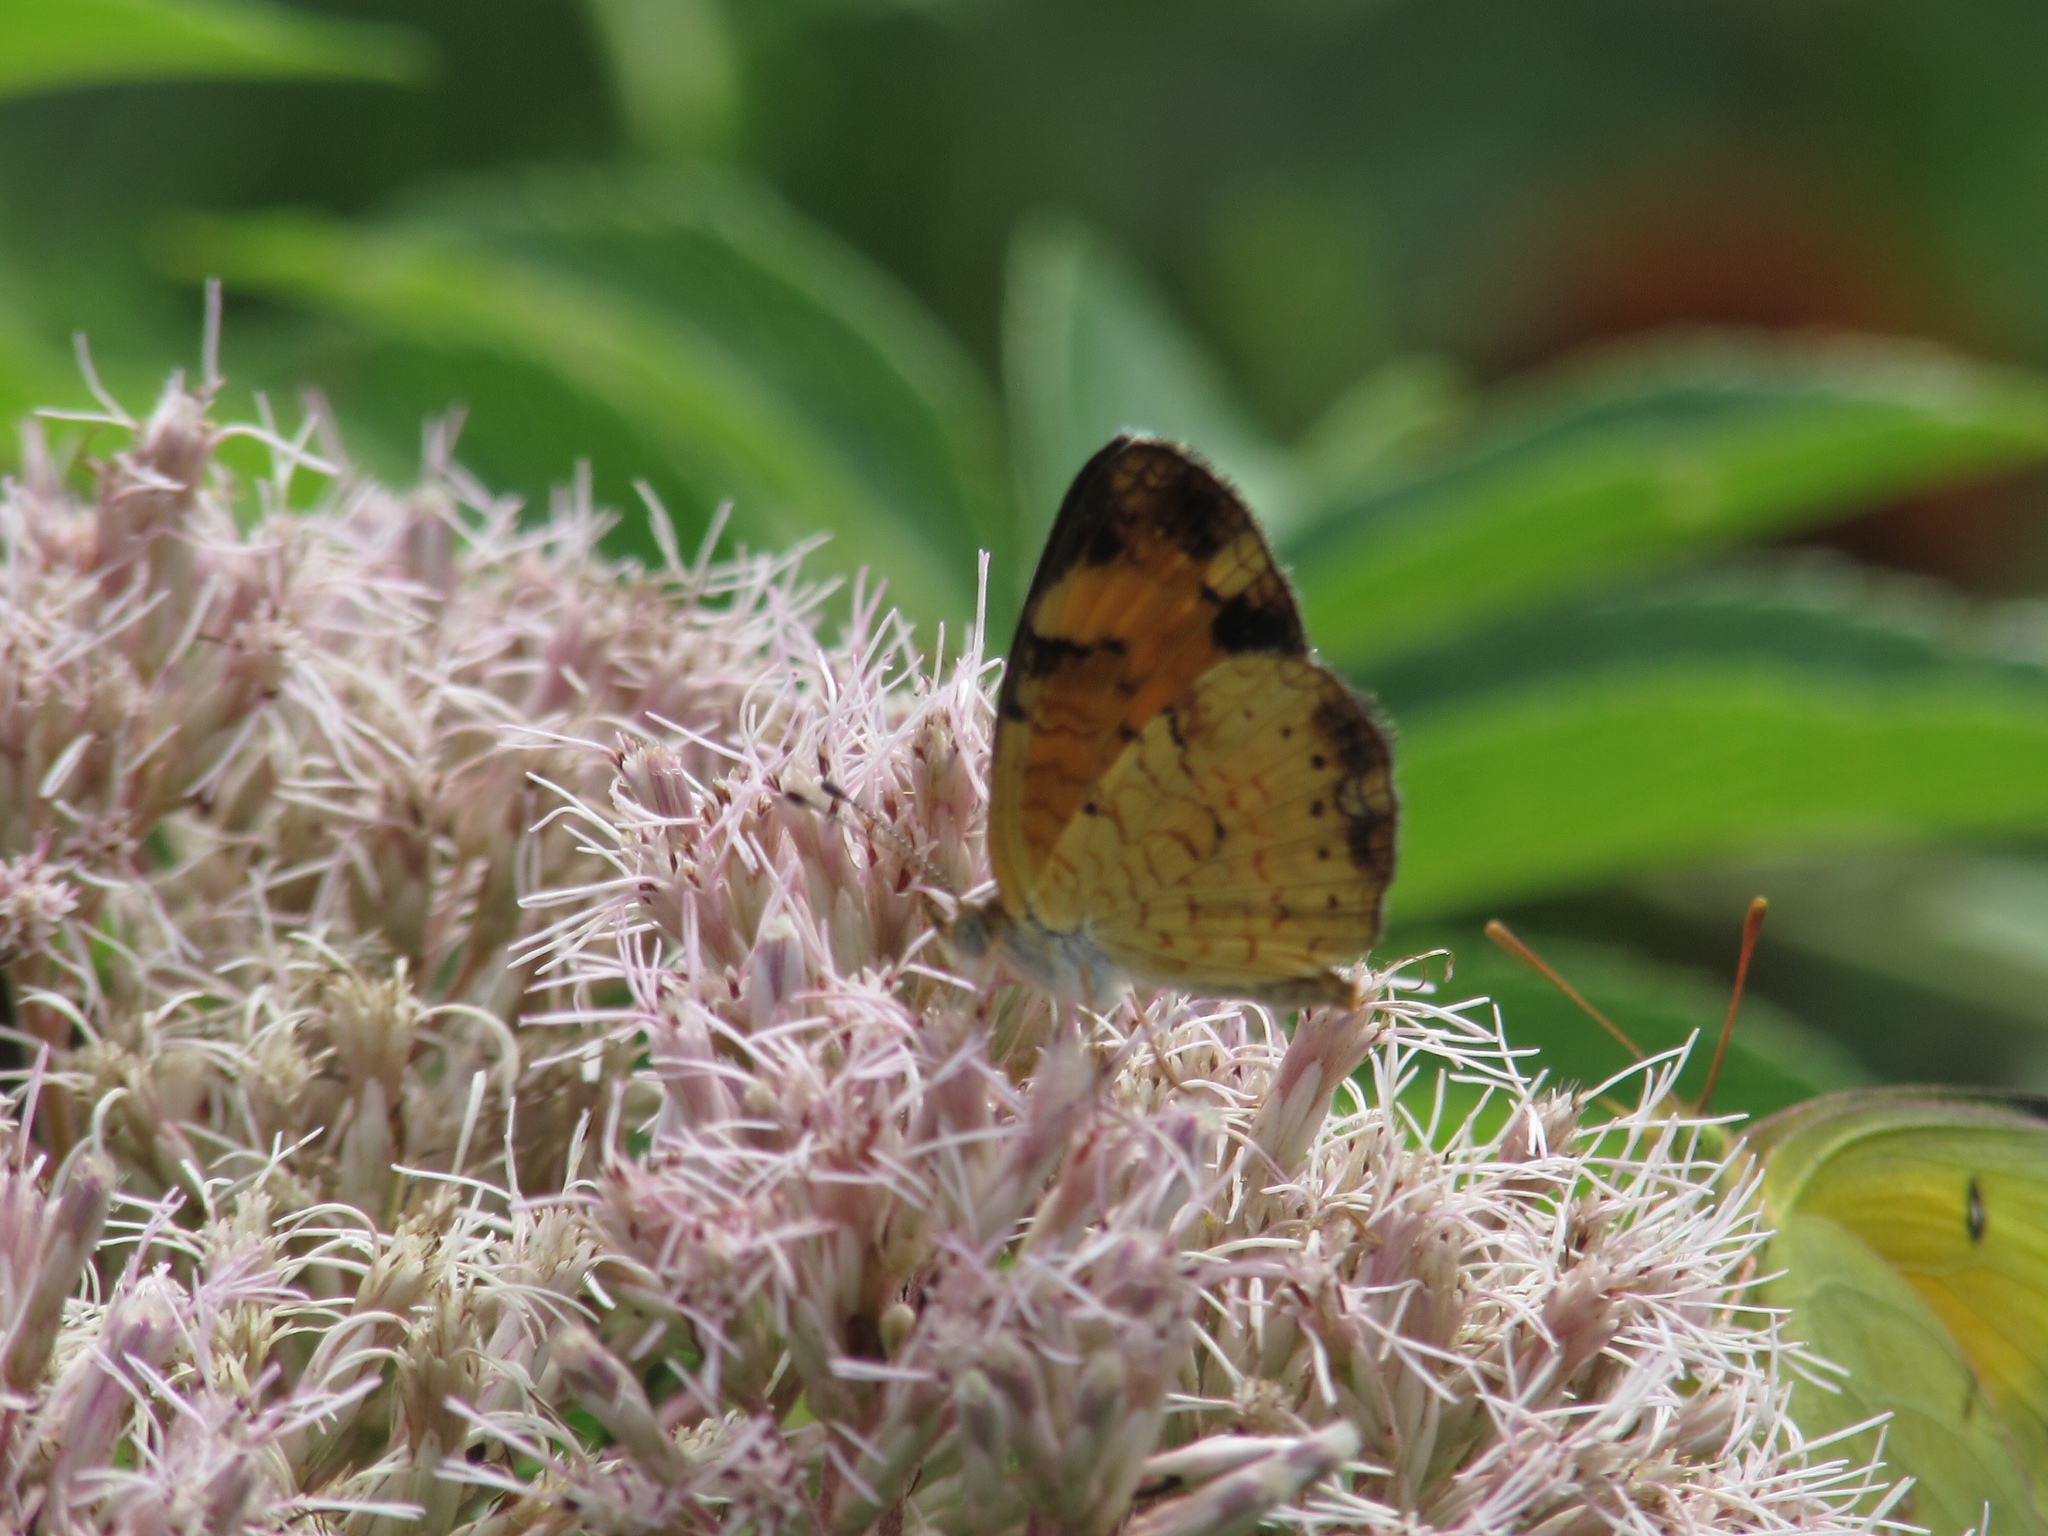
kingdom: Animalia
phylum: Arthropoda
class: Insecta
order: Lepidoptera
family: Nymphalidae
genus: Phyciodes
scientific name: Phyciodes tharos
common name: Pearl crescent
